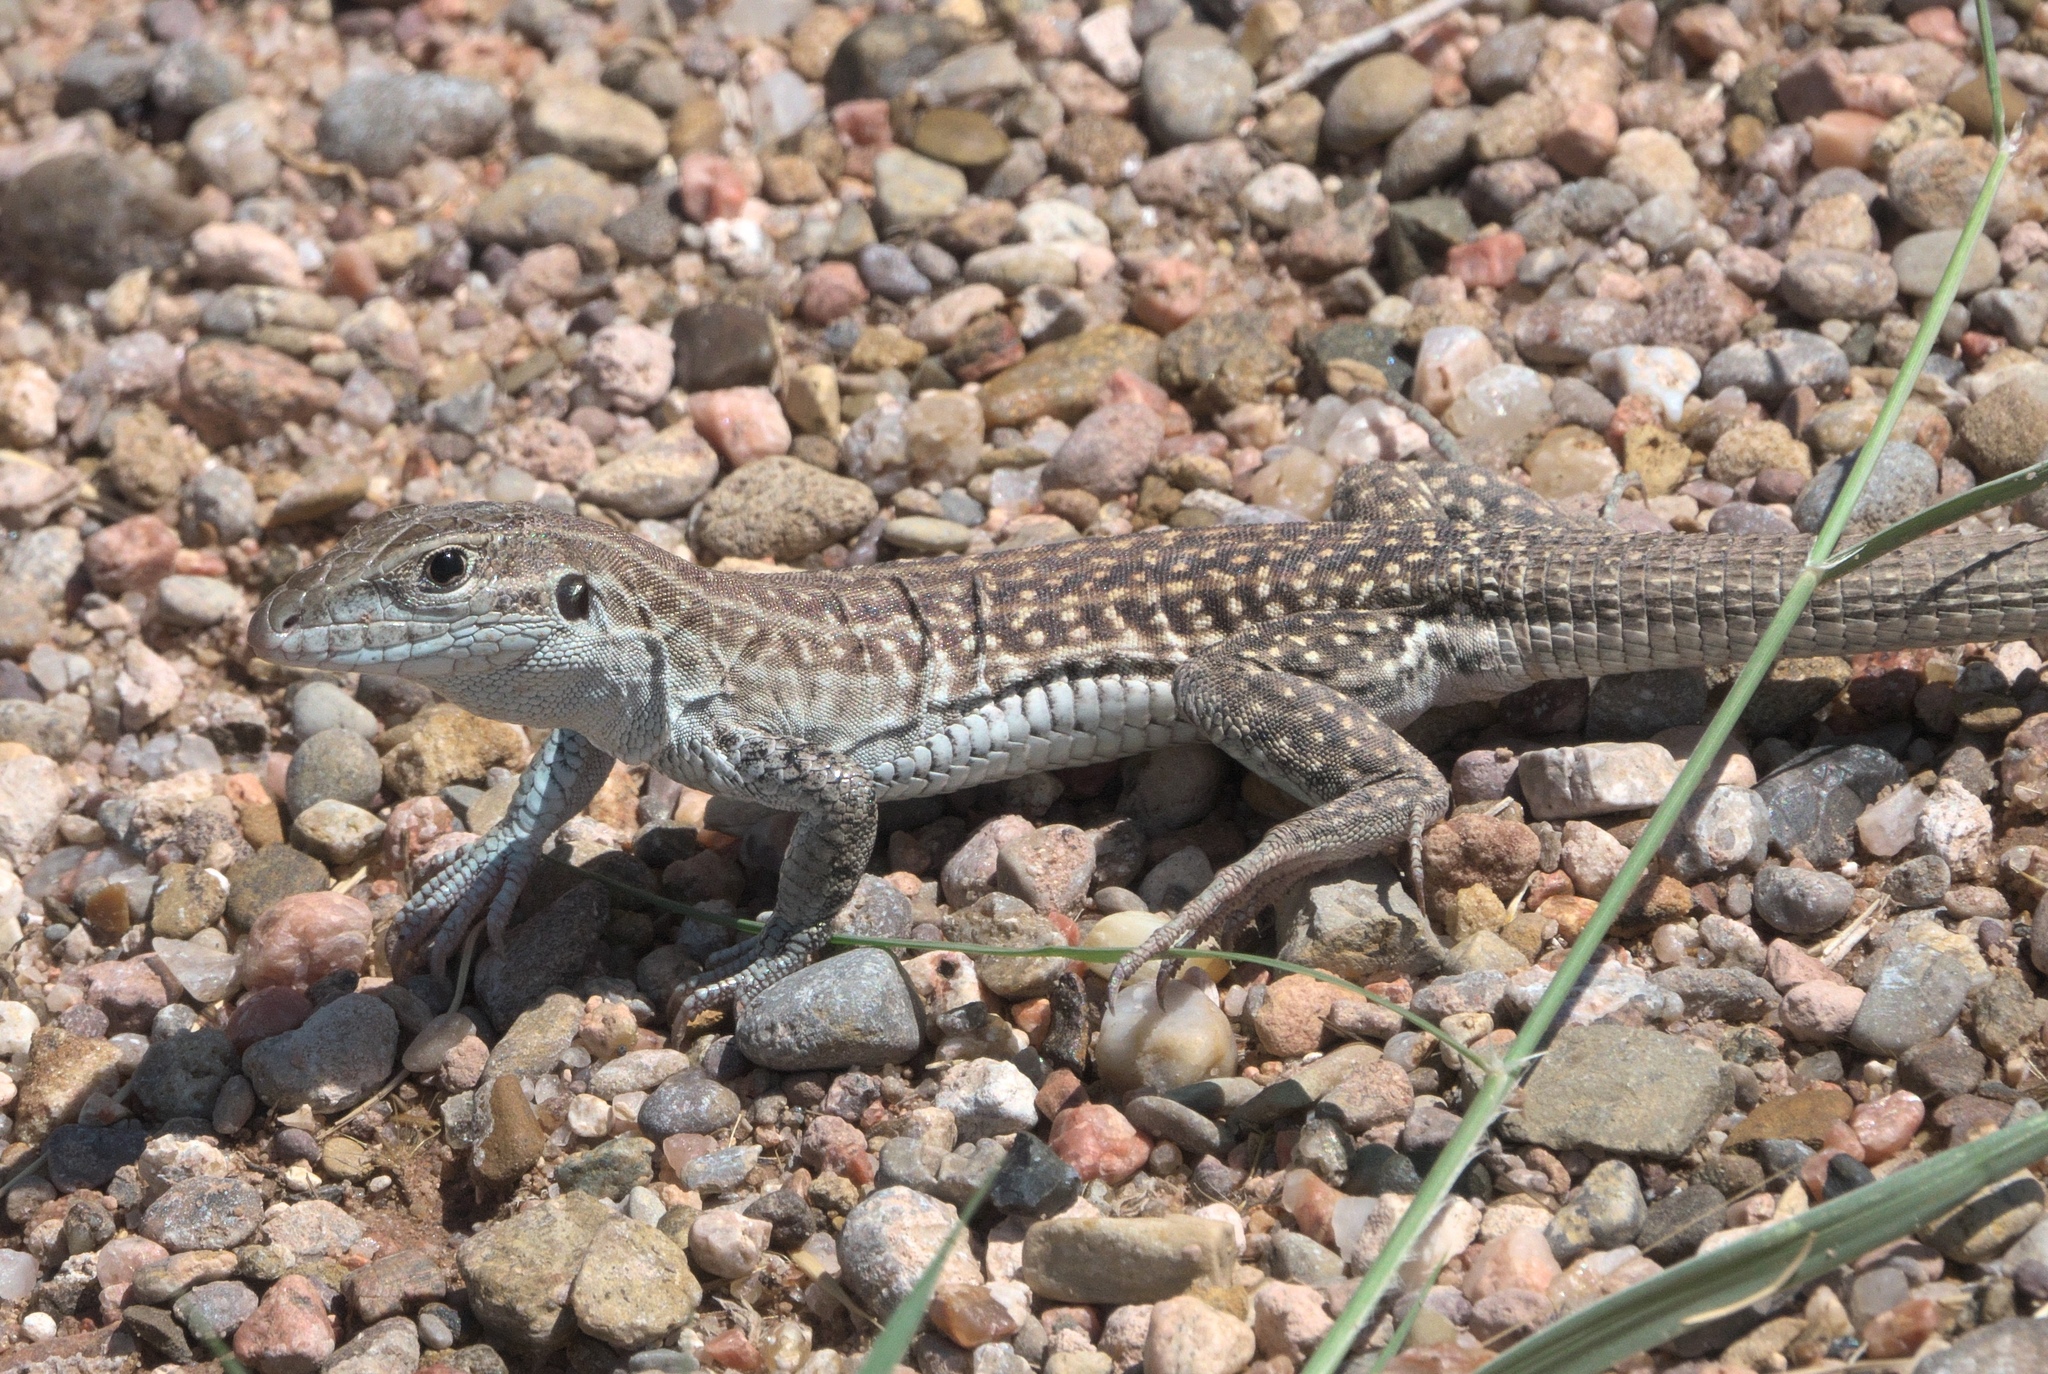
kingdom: Animalia
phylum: Chordata
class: Squamata
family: Teiidae
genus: Aspidoscelis
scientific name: Aspidoscelis exsanguis
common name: Chihuahuan spotted whiptail
